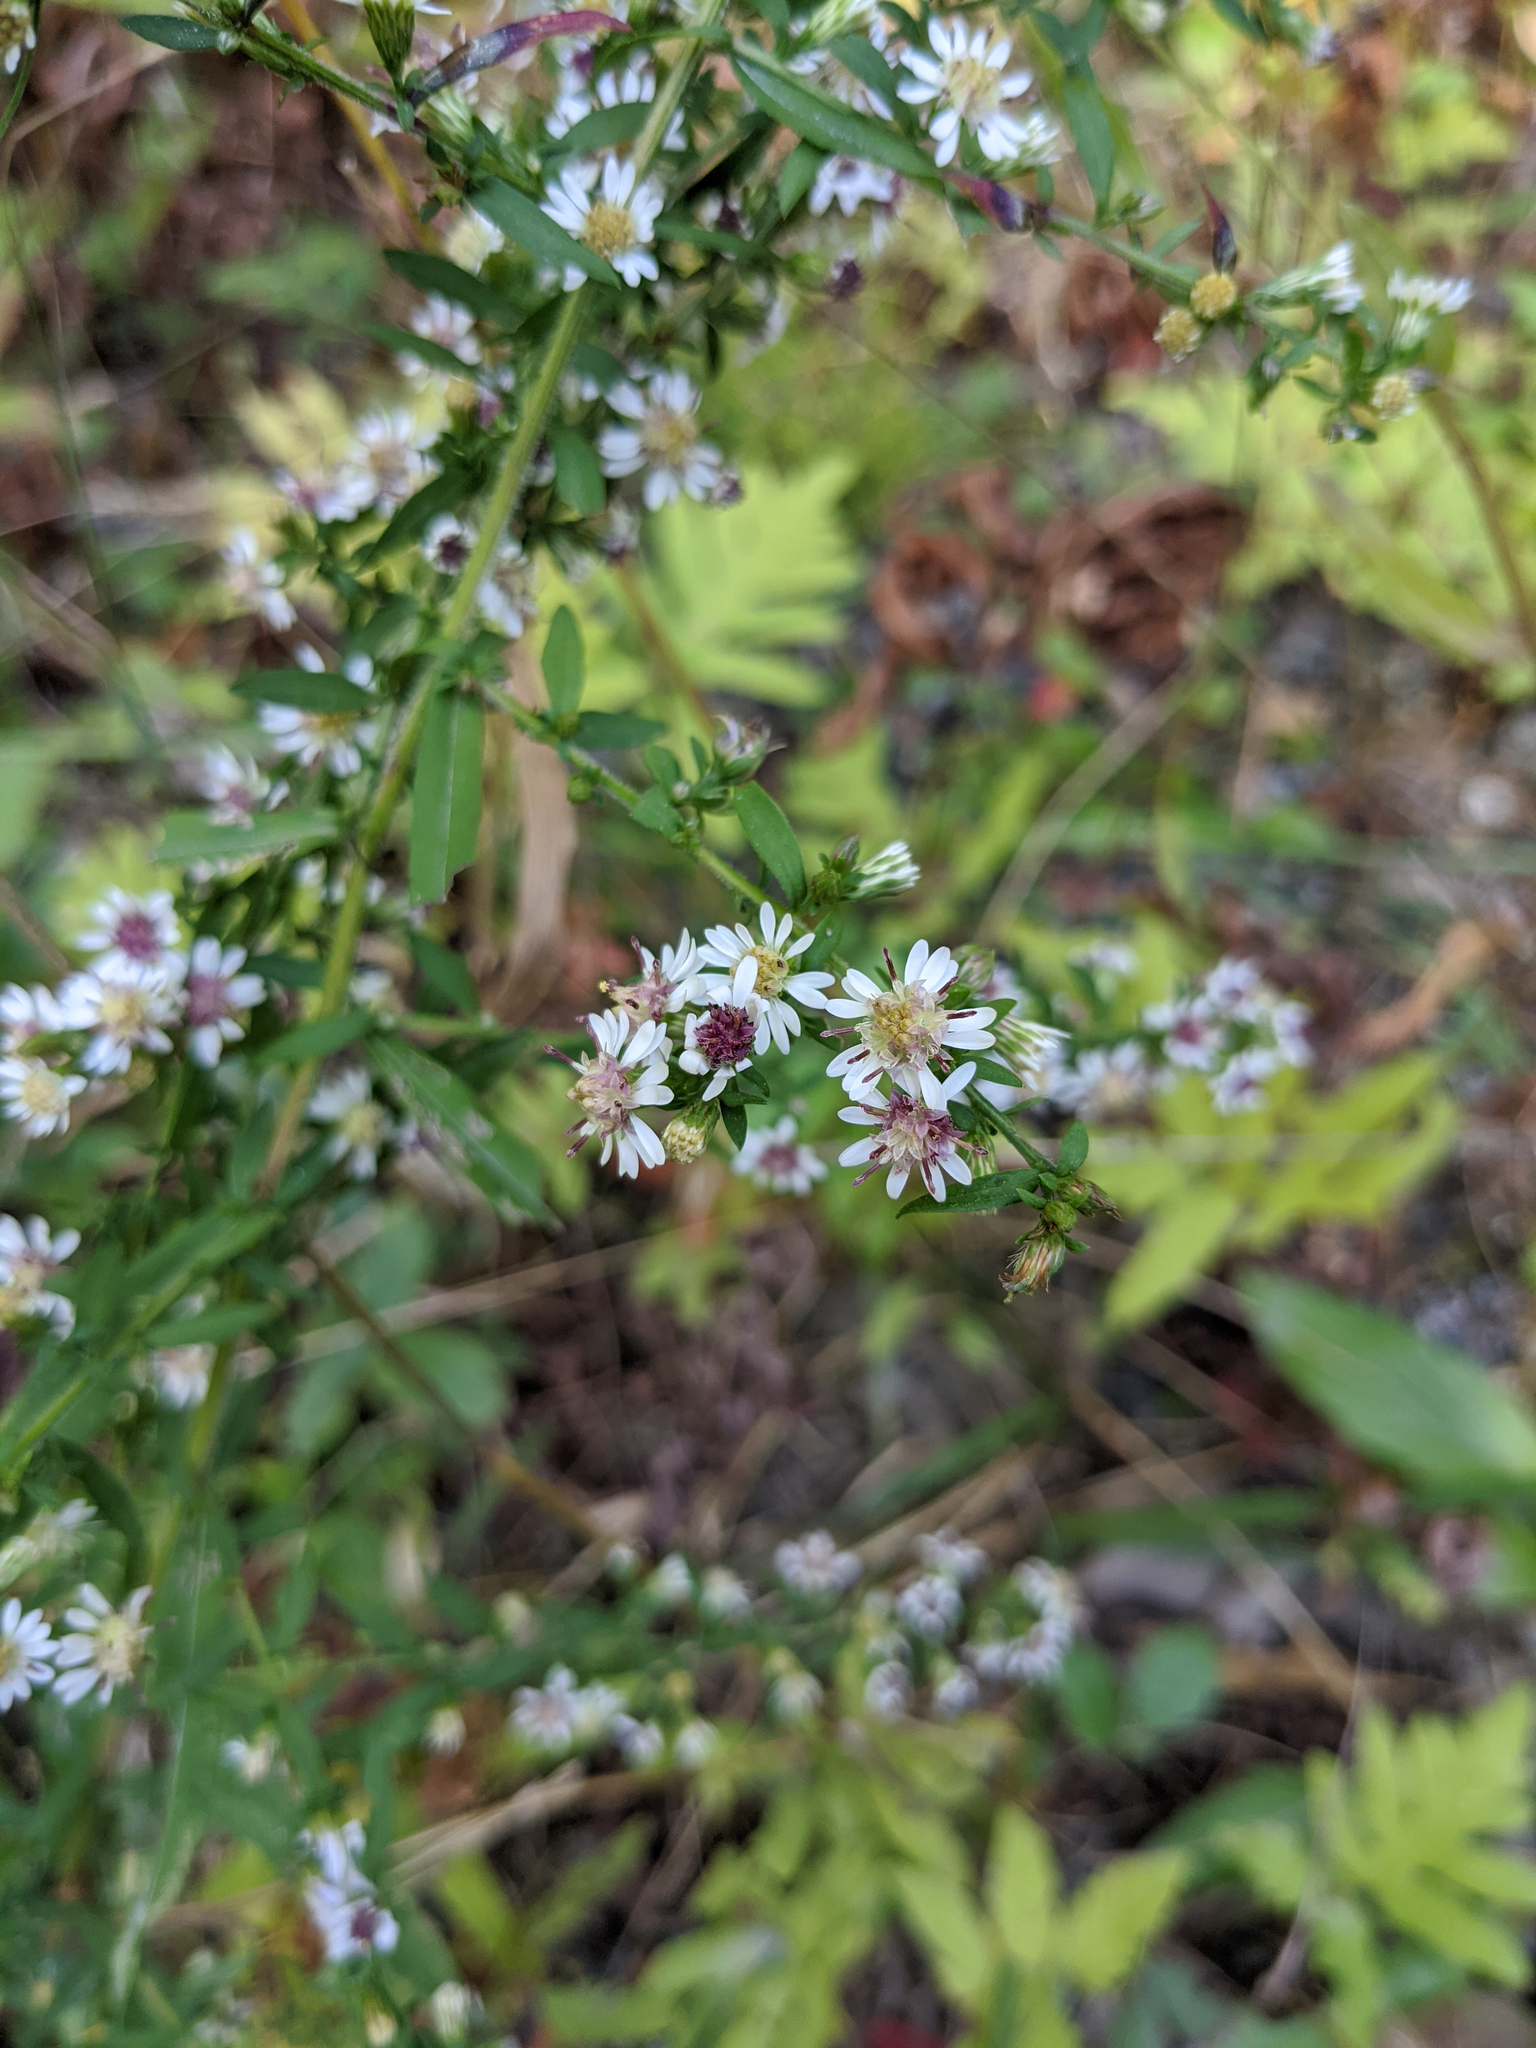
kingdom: Plantae
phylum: Tracheophyta
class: Magnoliopsida
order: Asterales
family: Asteraceae
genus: Symphyotrichum
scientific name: Symphyotrichum lateriflorum
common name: Calico aster
